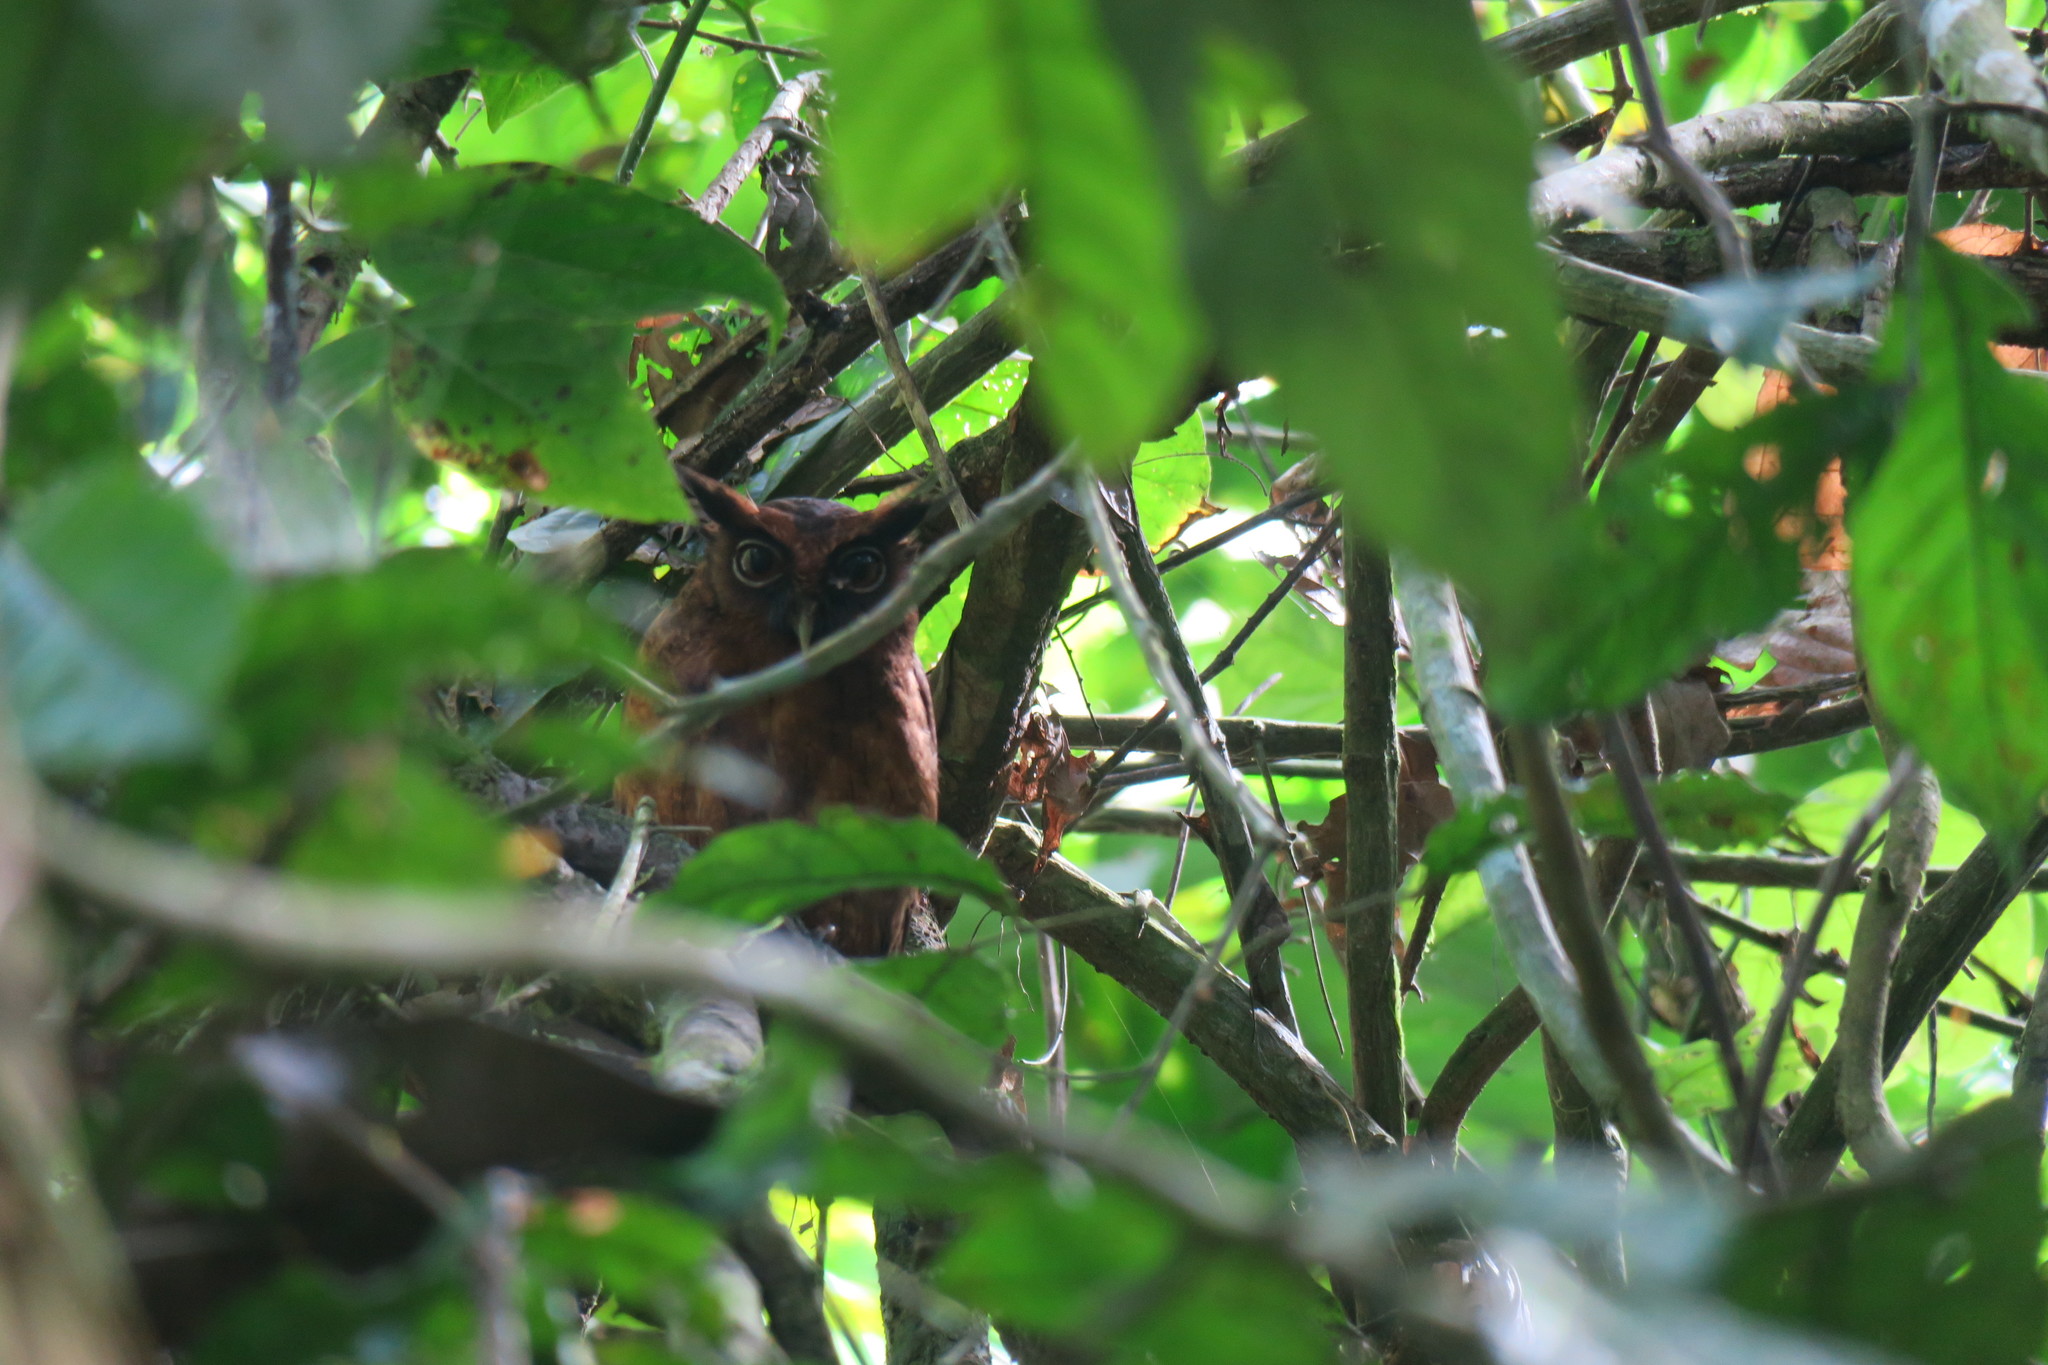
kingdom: Animalia
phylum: Chordata
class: Aves
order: Strigiformes
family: Strigidae
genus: Megascops
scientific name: Megascops watsonii
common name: Tawny-bellied screech-owl
